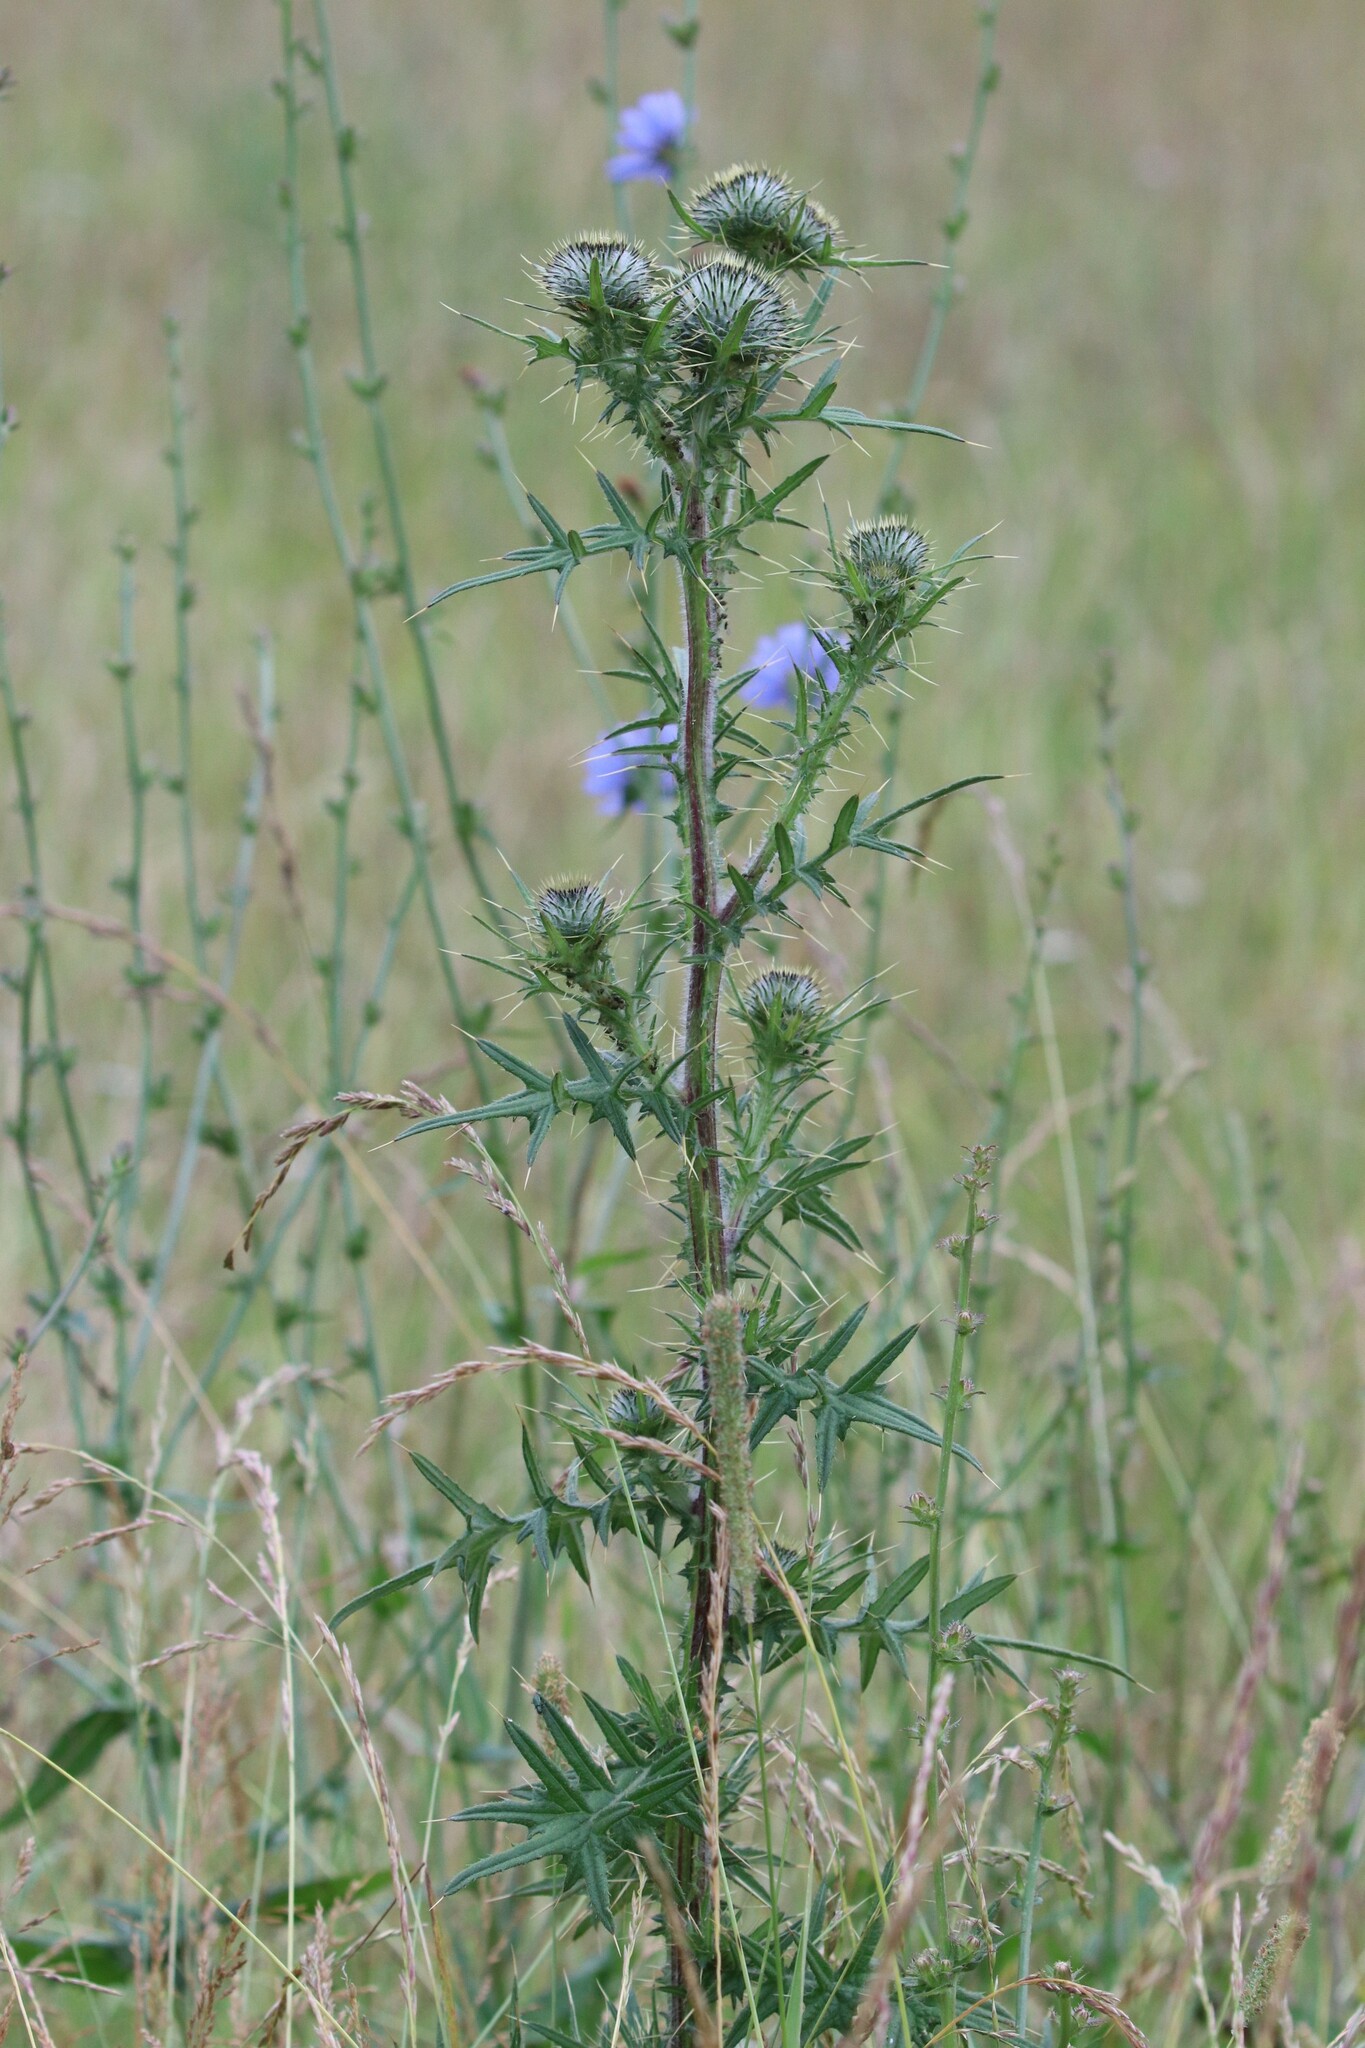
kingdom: Plantae
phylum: Tracheophyta
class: Magnoliopsida
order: Asterales
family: Asteraceae
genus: Cirsium
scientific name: Cirsium vulgare
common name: Bull thistle
